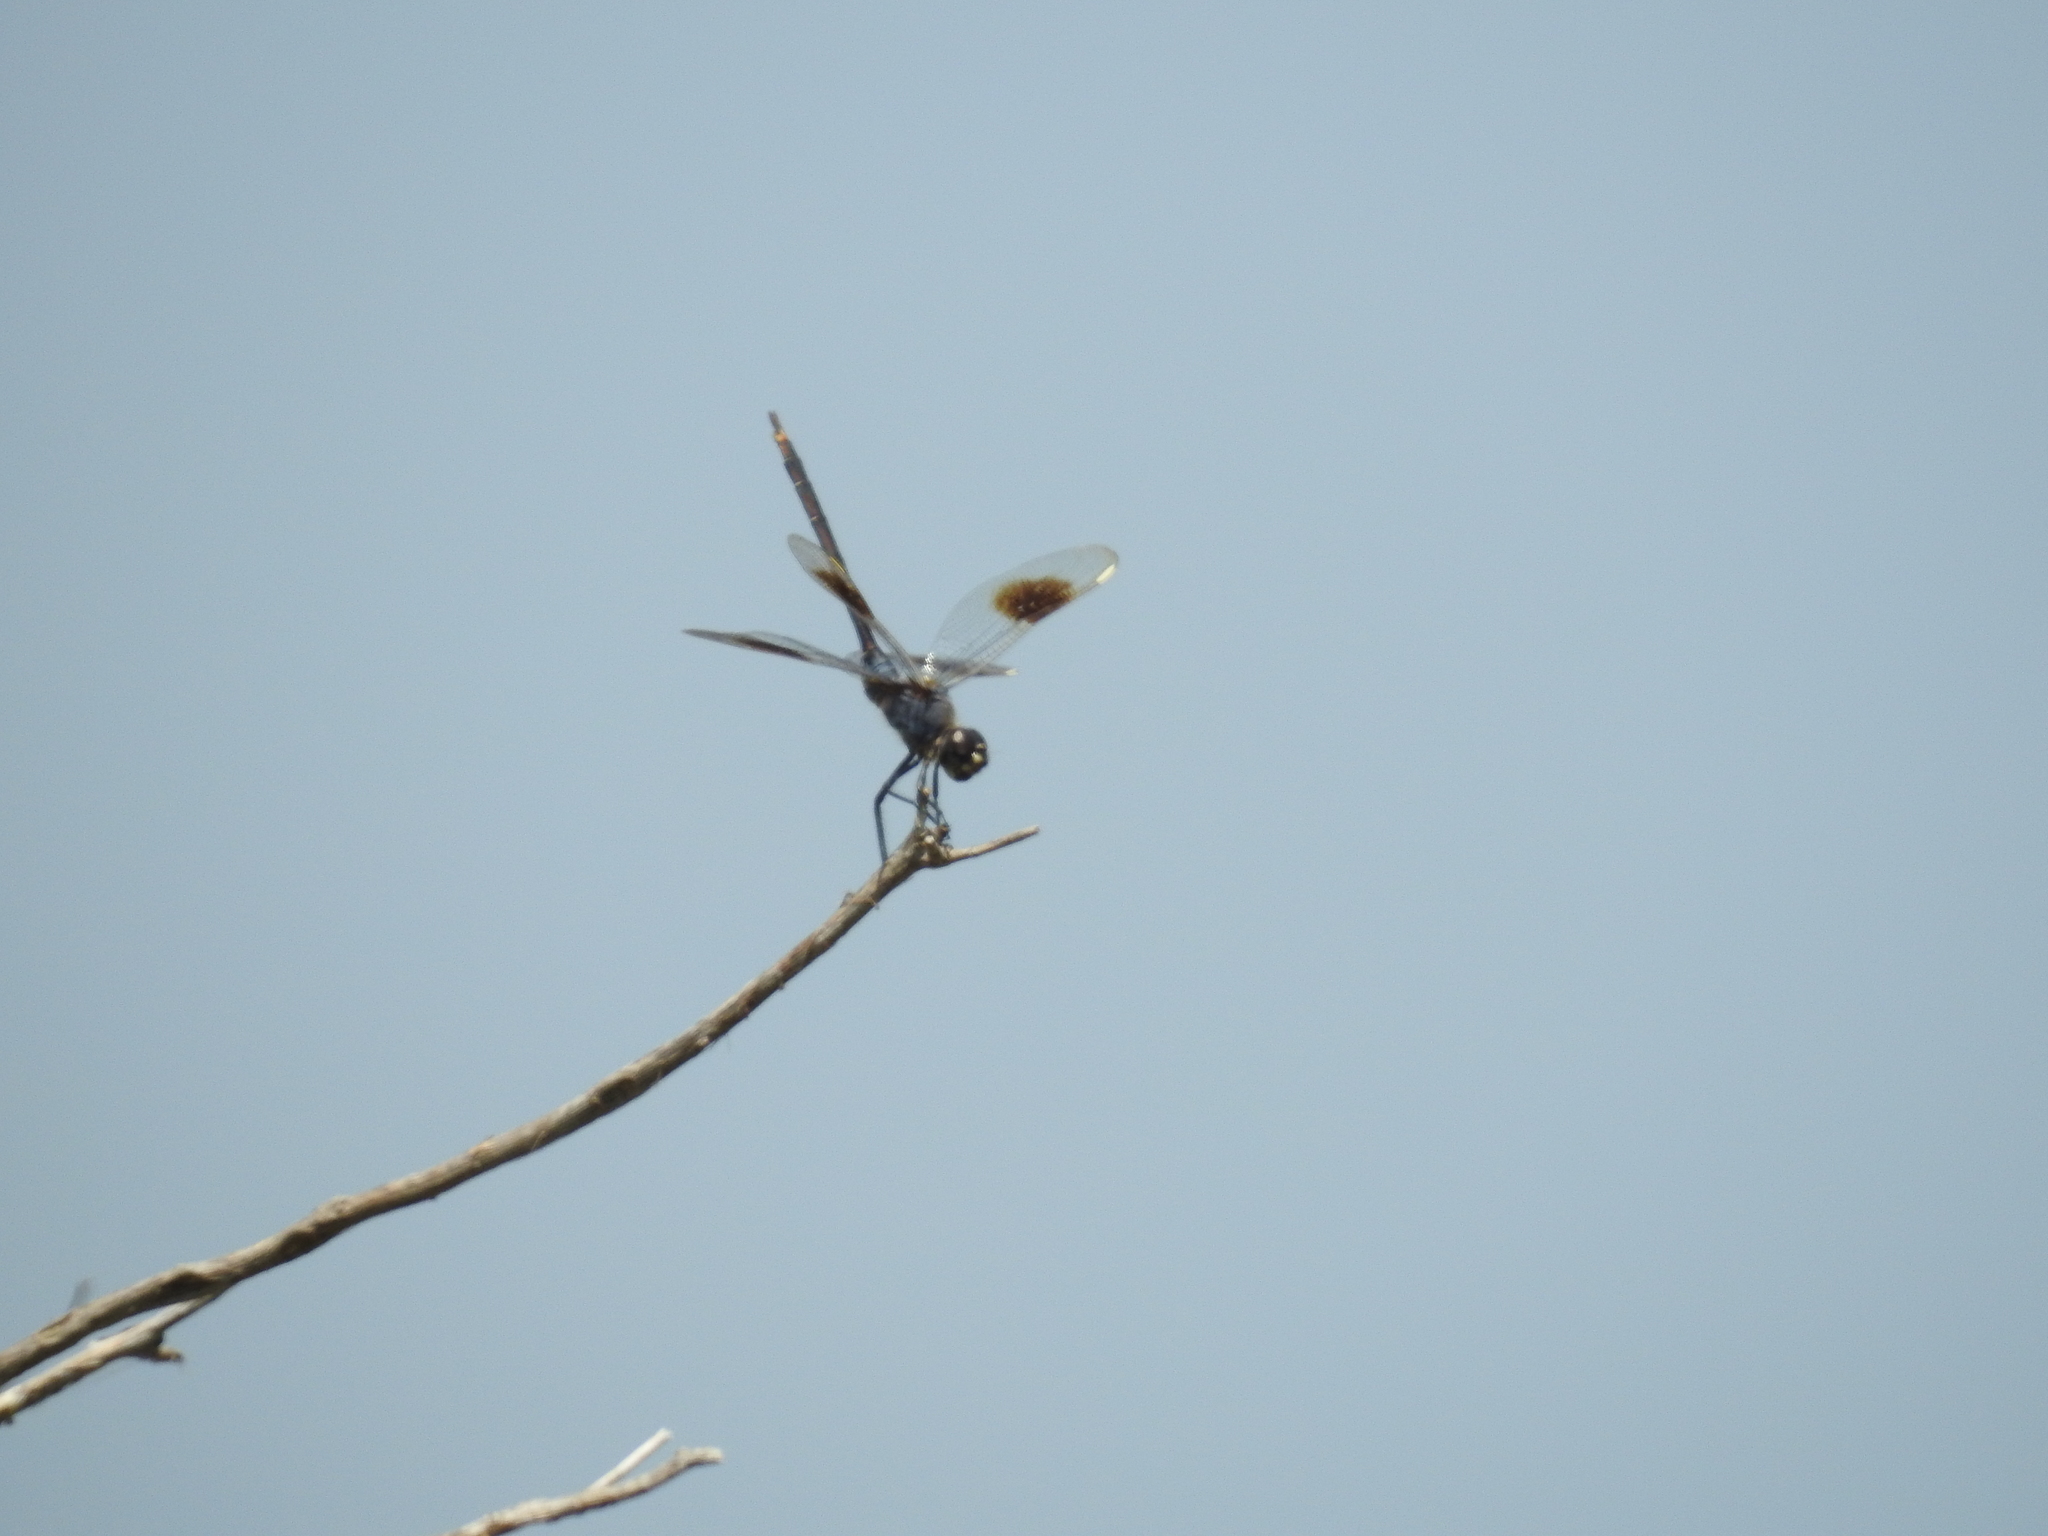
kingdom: Animalia
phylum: Arthropoda
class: Insecta
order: Odonata
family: Libellulidae
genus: Brachymesia
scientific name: Brachymesia gravida
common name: Four-spotted pennant
